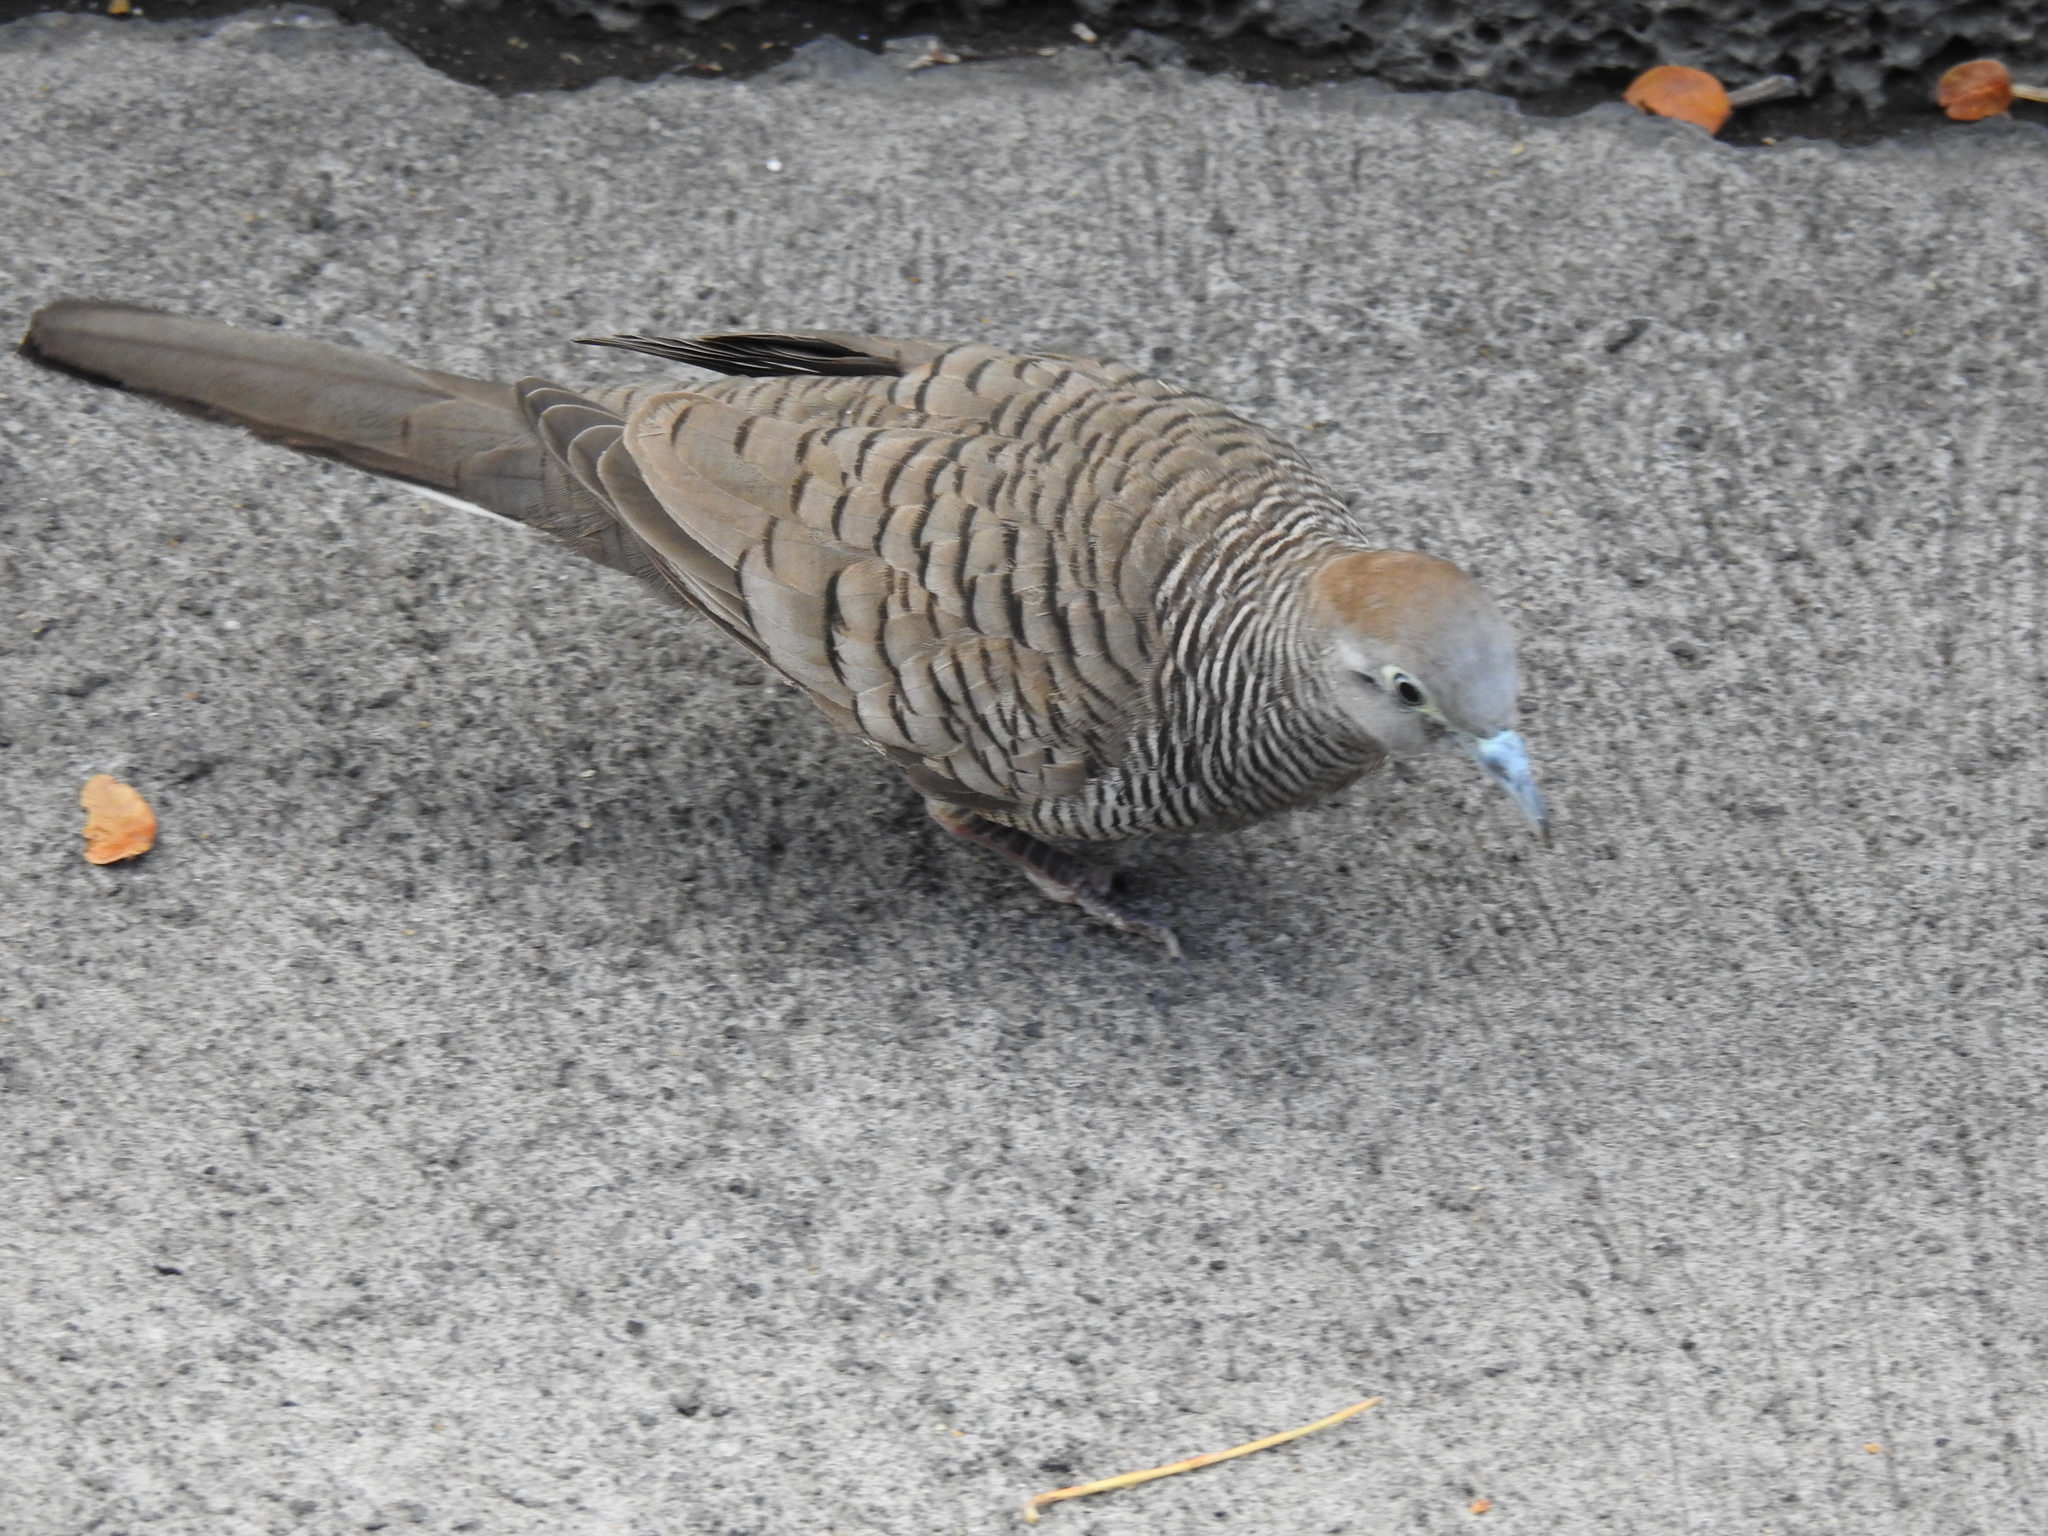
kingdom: Animalia
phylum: Chordata
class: Aves
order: Columbiformes
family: Columbidae
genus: Geopelia
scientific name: Geopelia striata
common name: Zebra dove
